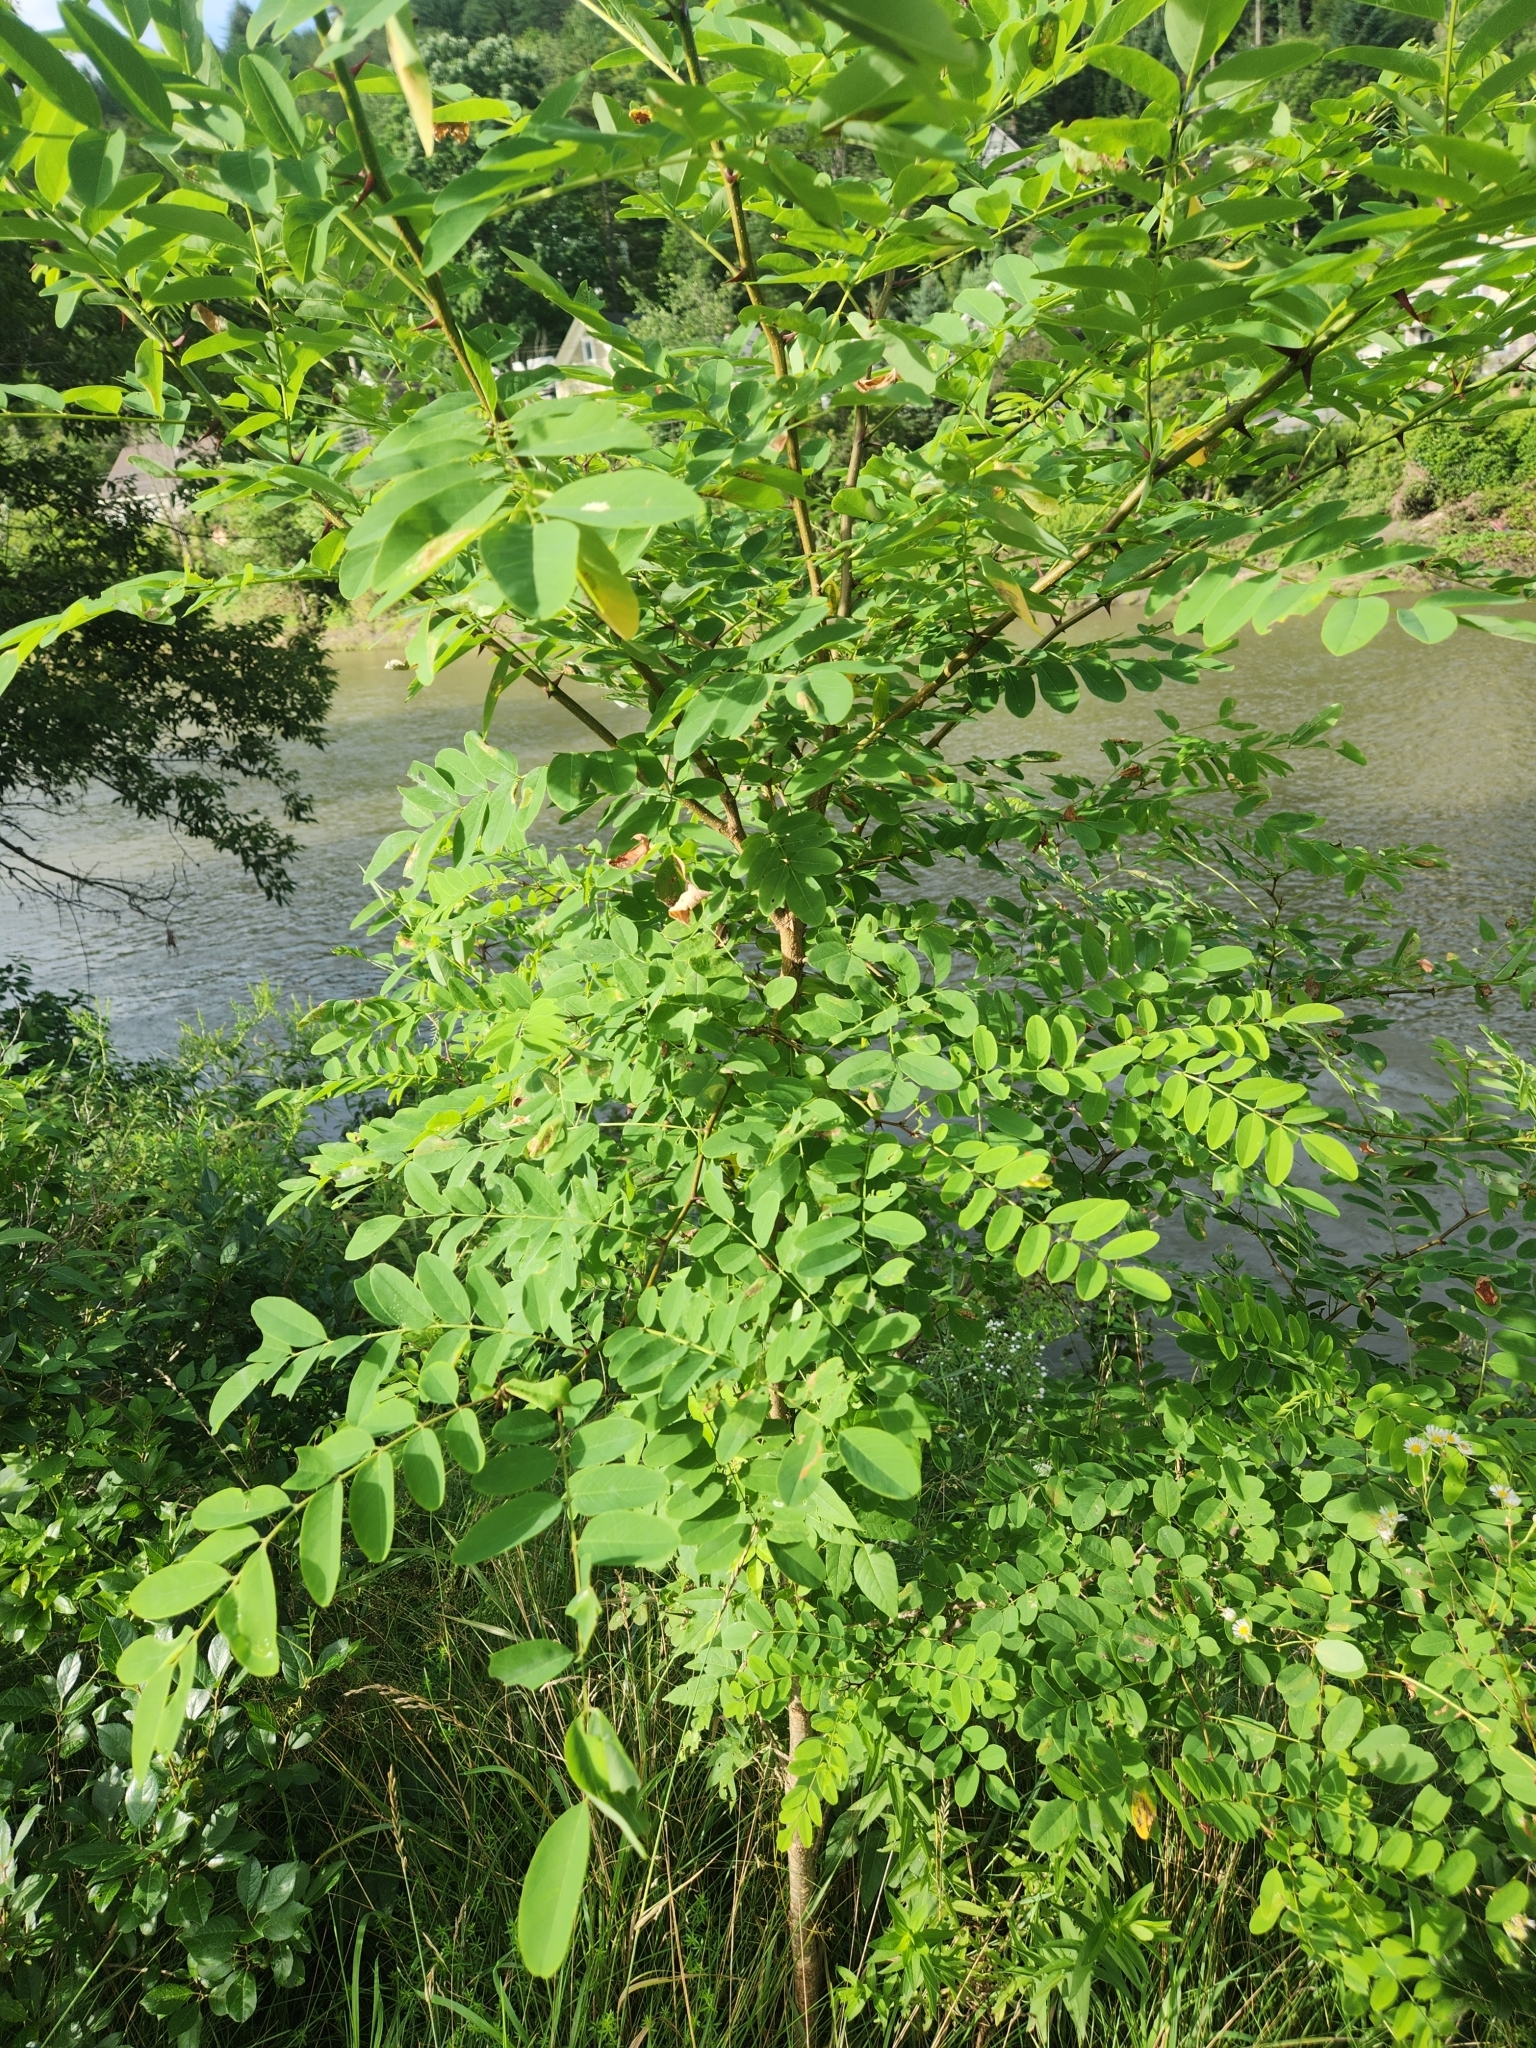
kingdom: Plantae
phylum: Tracheophyta
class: Magnoliopsida
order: Fabales
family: Fabaceae
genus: Robinia
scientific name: Robinia pseudoacacia
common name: Black locust
